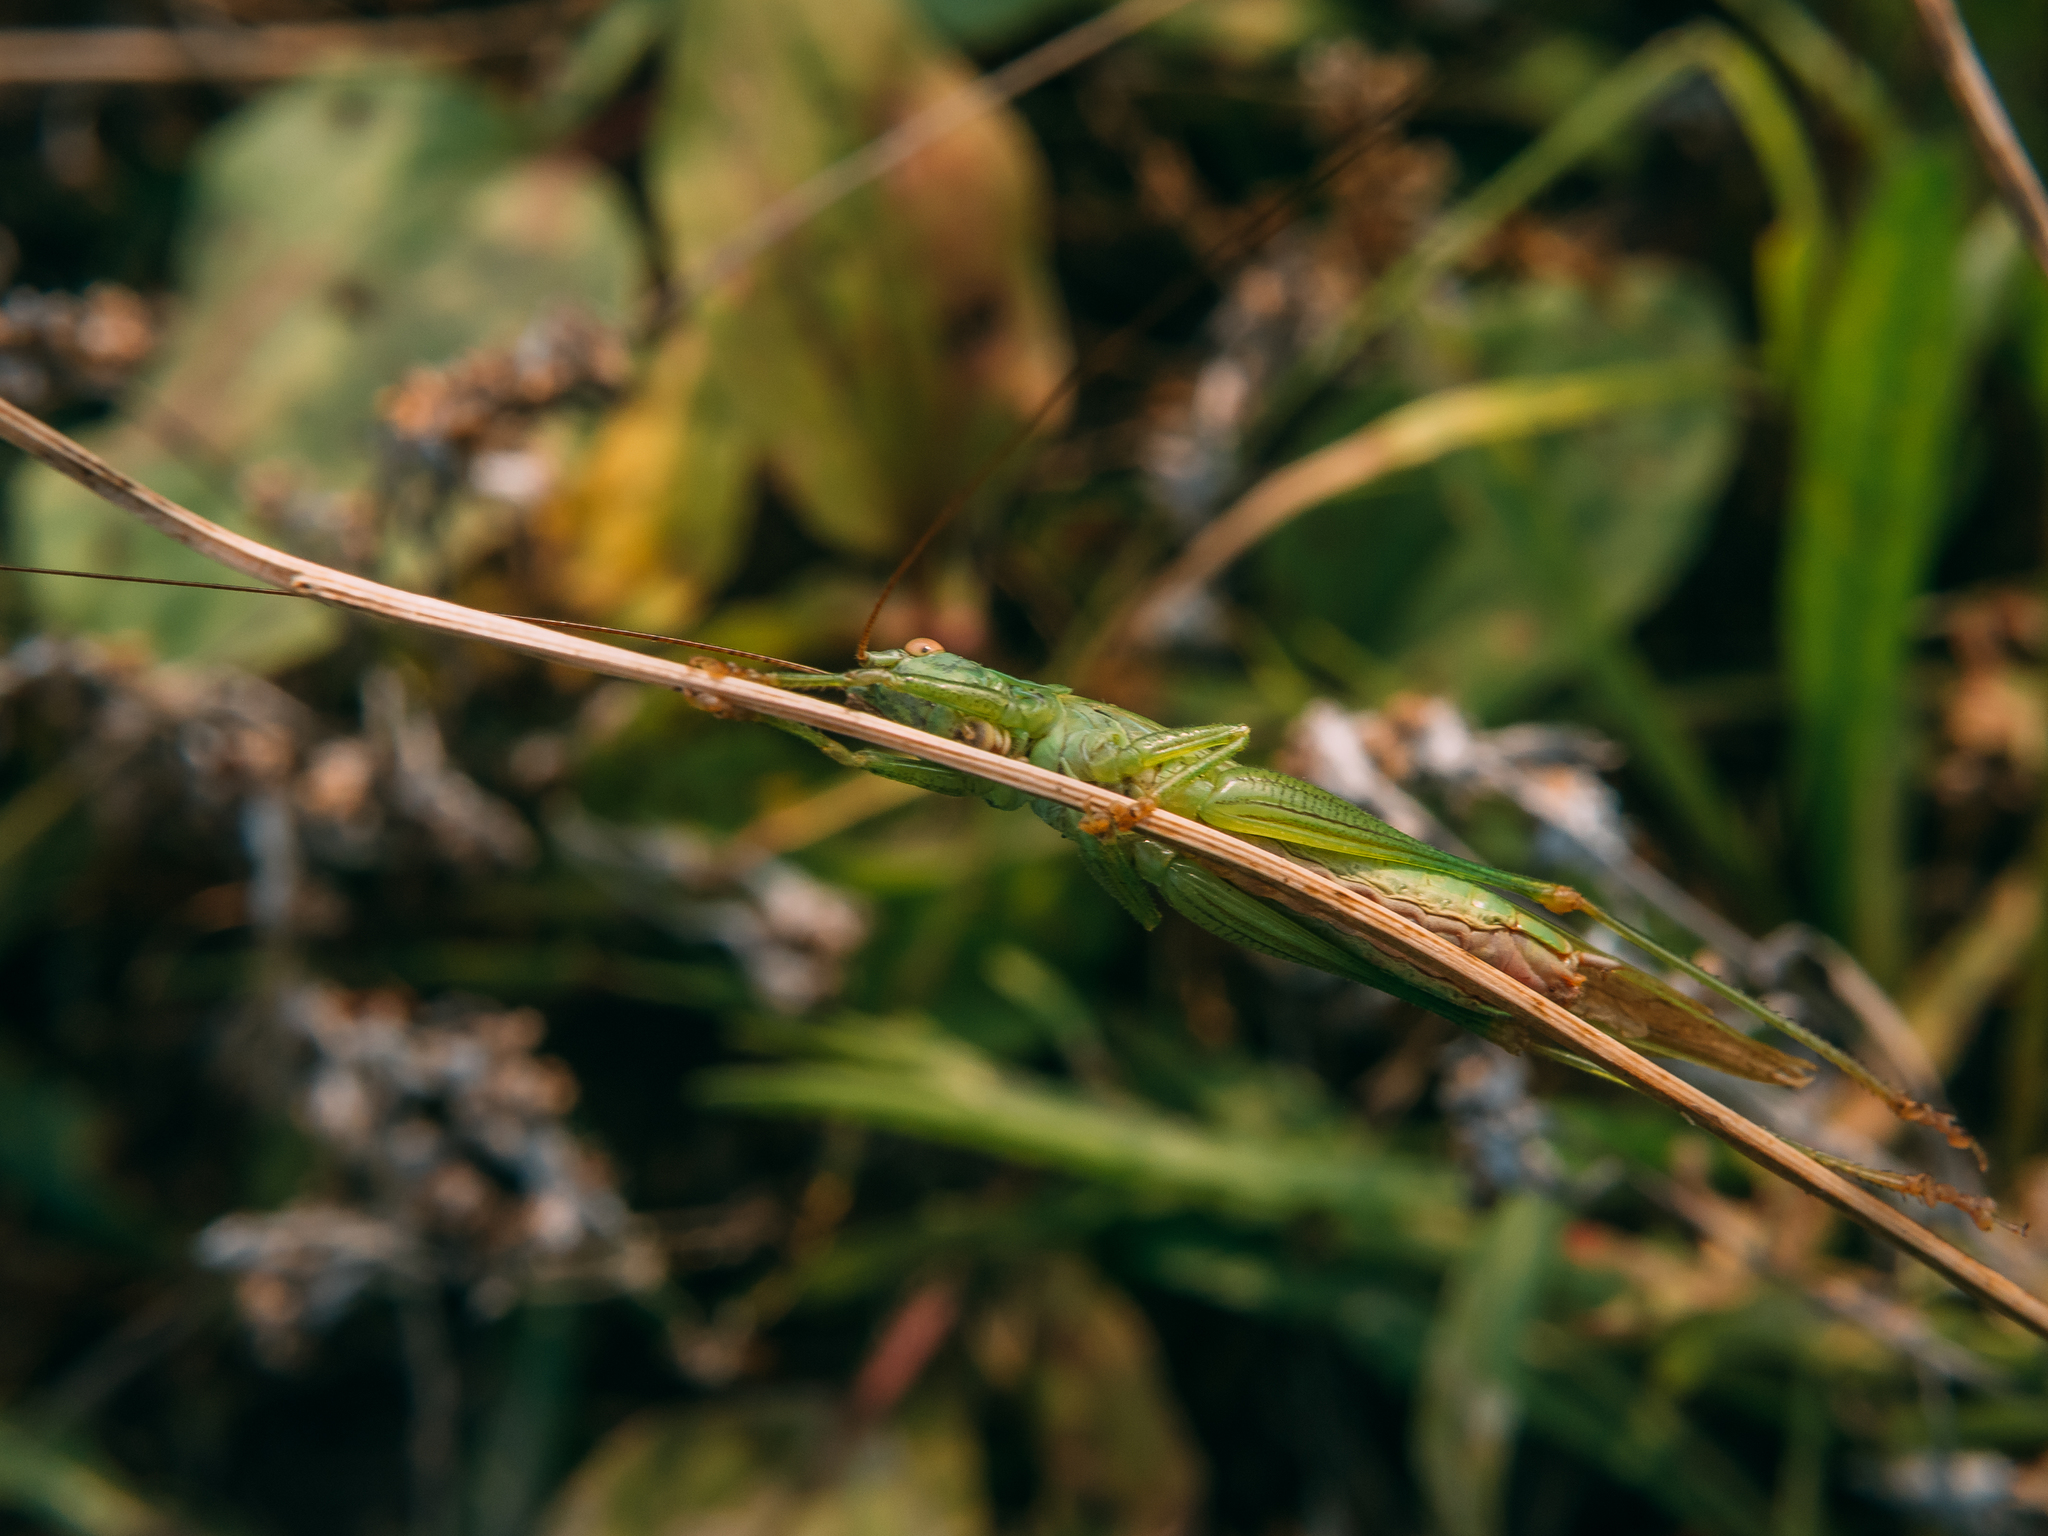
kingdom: Animalia
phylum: Arthropoda
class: Insecta
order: Orthoptera
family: Tettigoniidae
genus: Conocephalus
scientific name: Conocephalus fuscus
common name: Long-winged conehead
